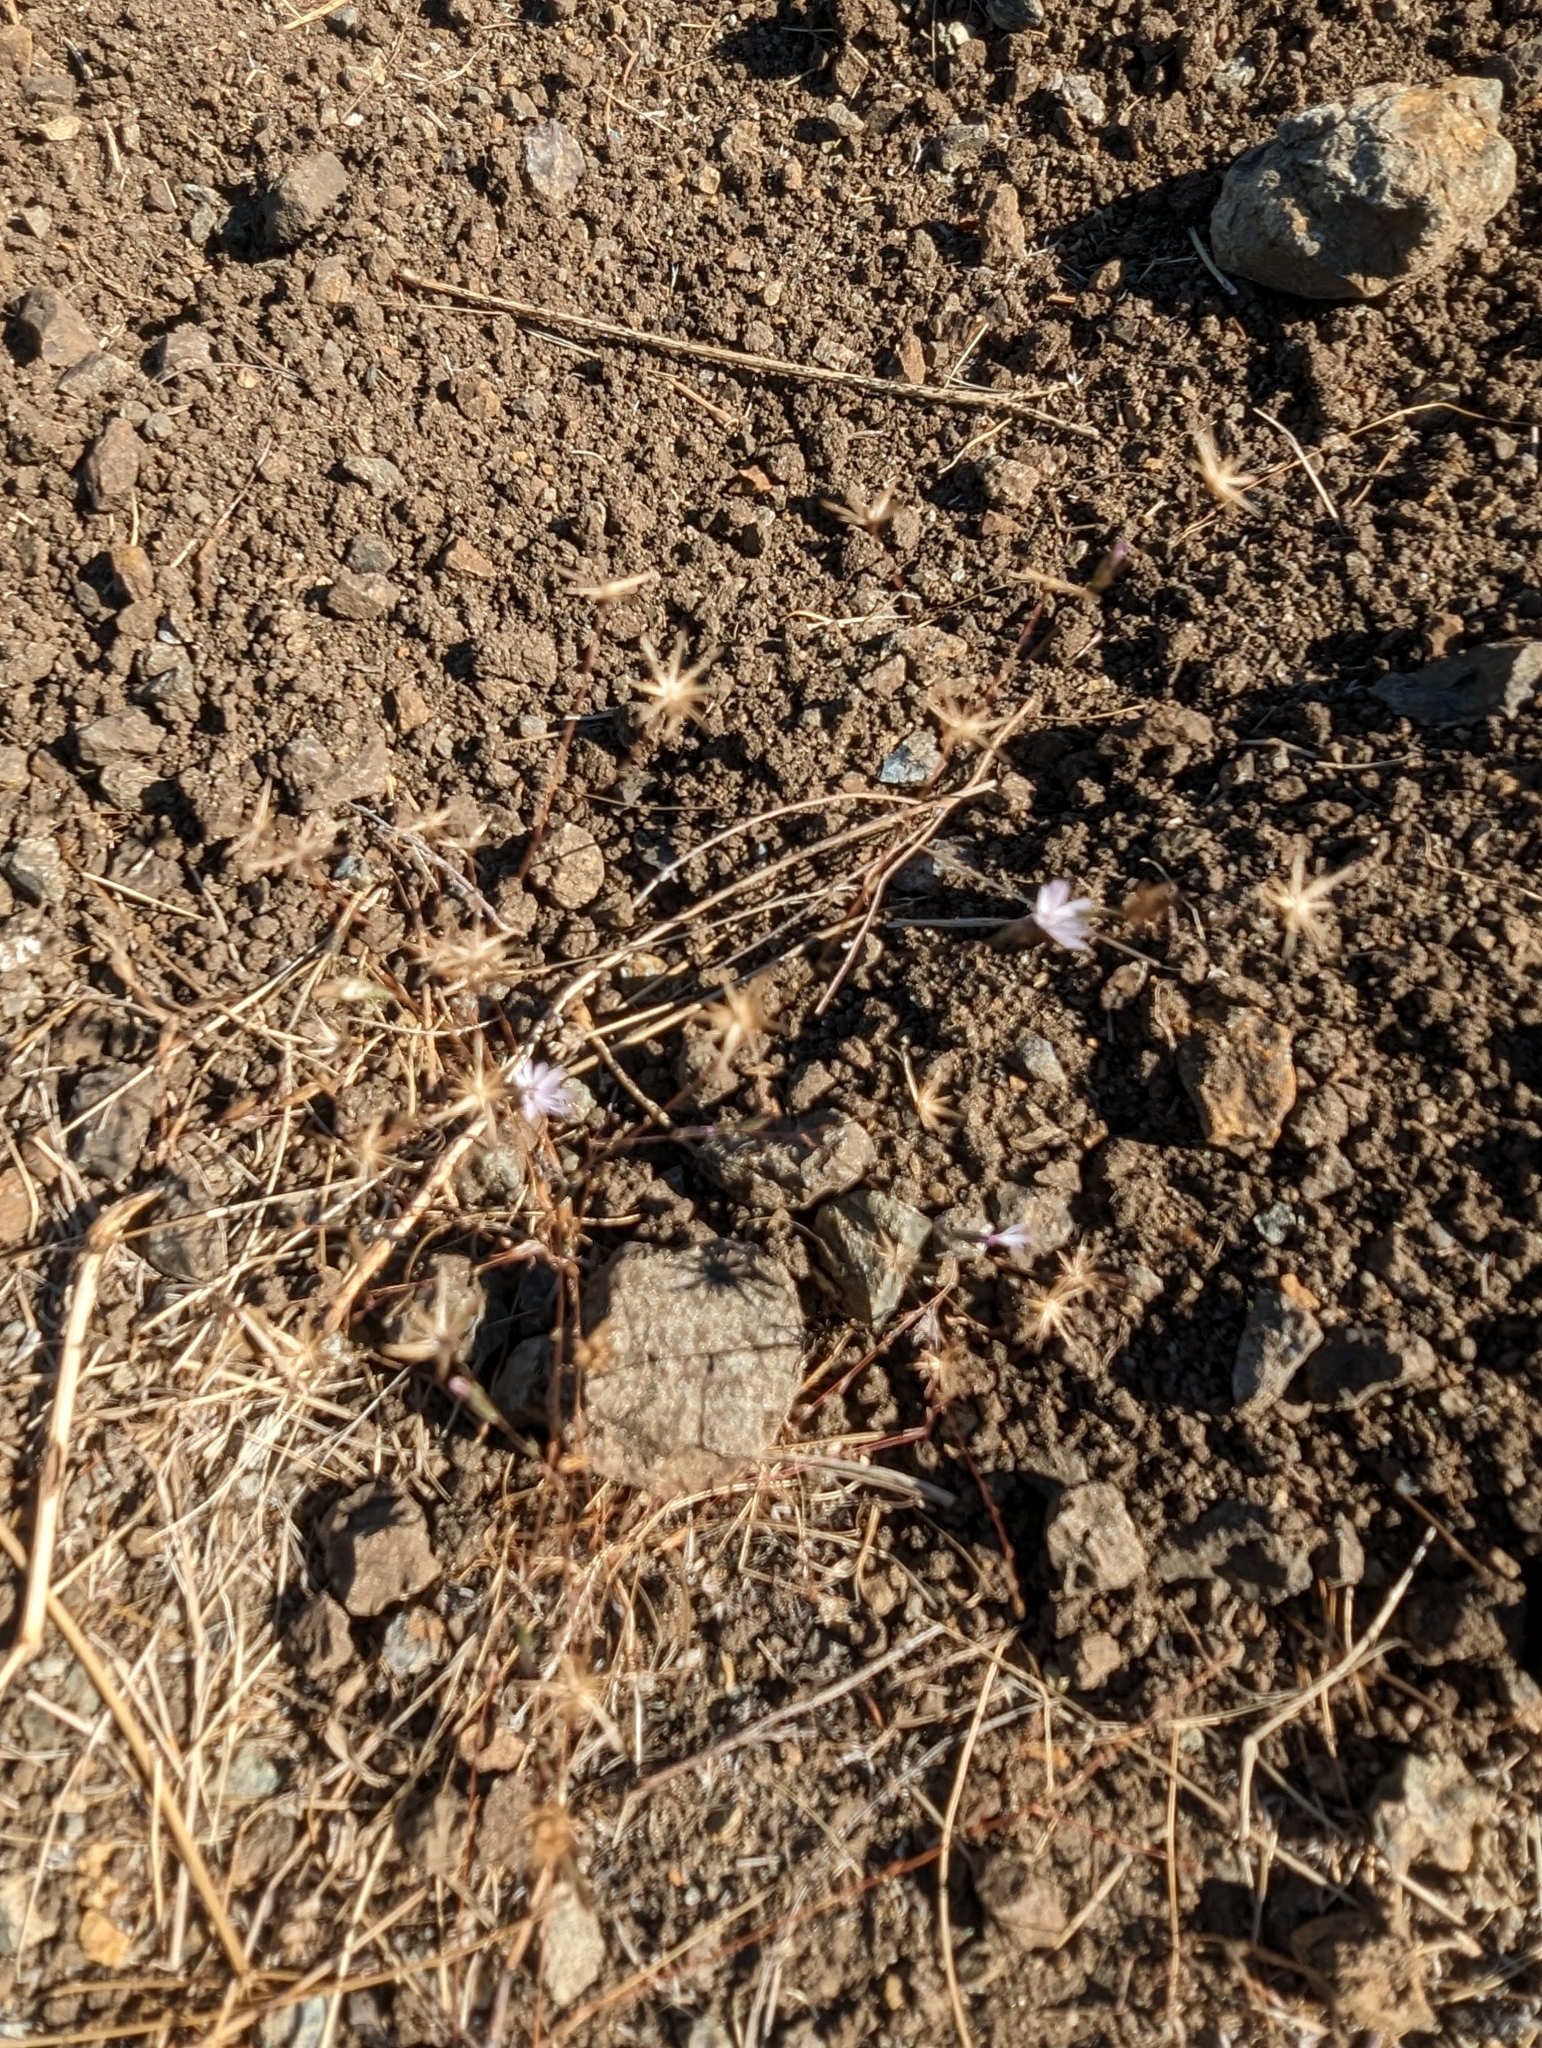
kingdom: Plantae
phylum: Tracheophyta
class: Magnoliopsida
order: Asterales
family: Asteraceae
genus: Lessingia
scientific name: Lessingia micradenia
